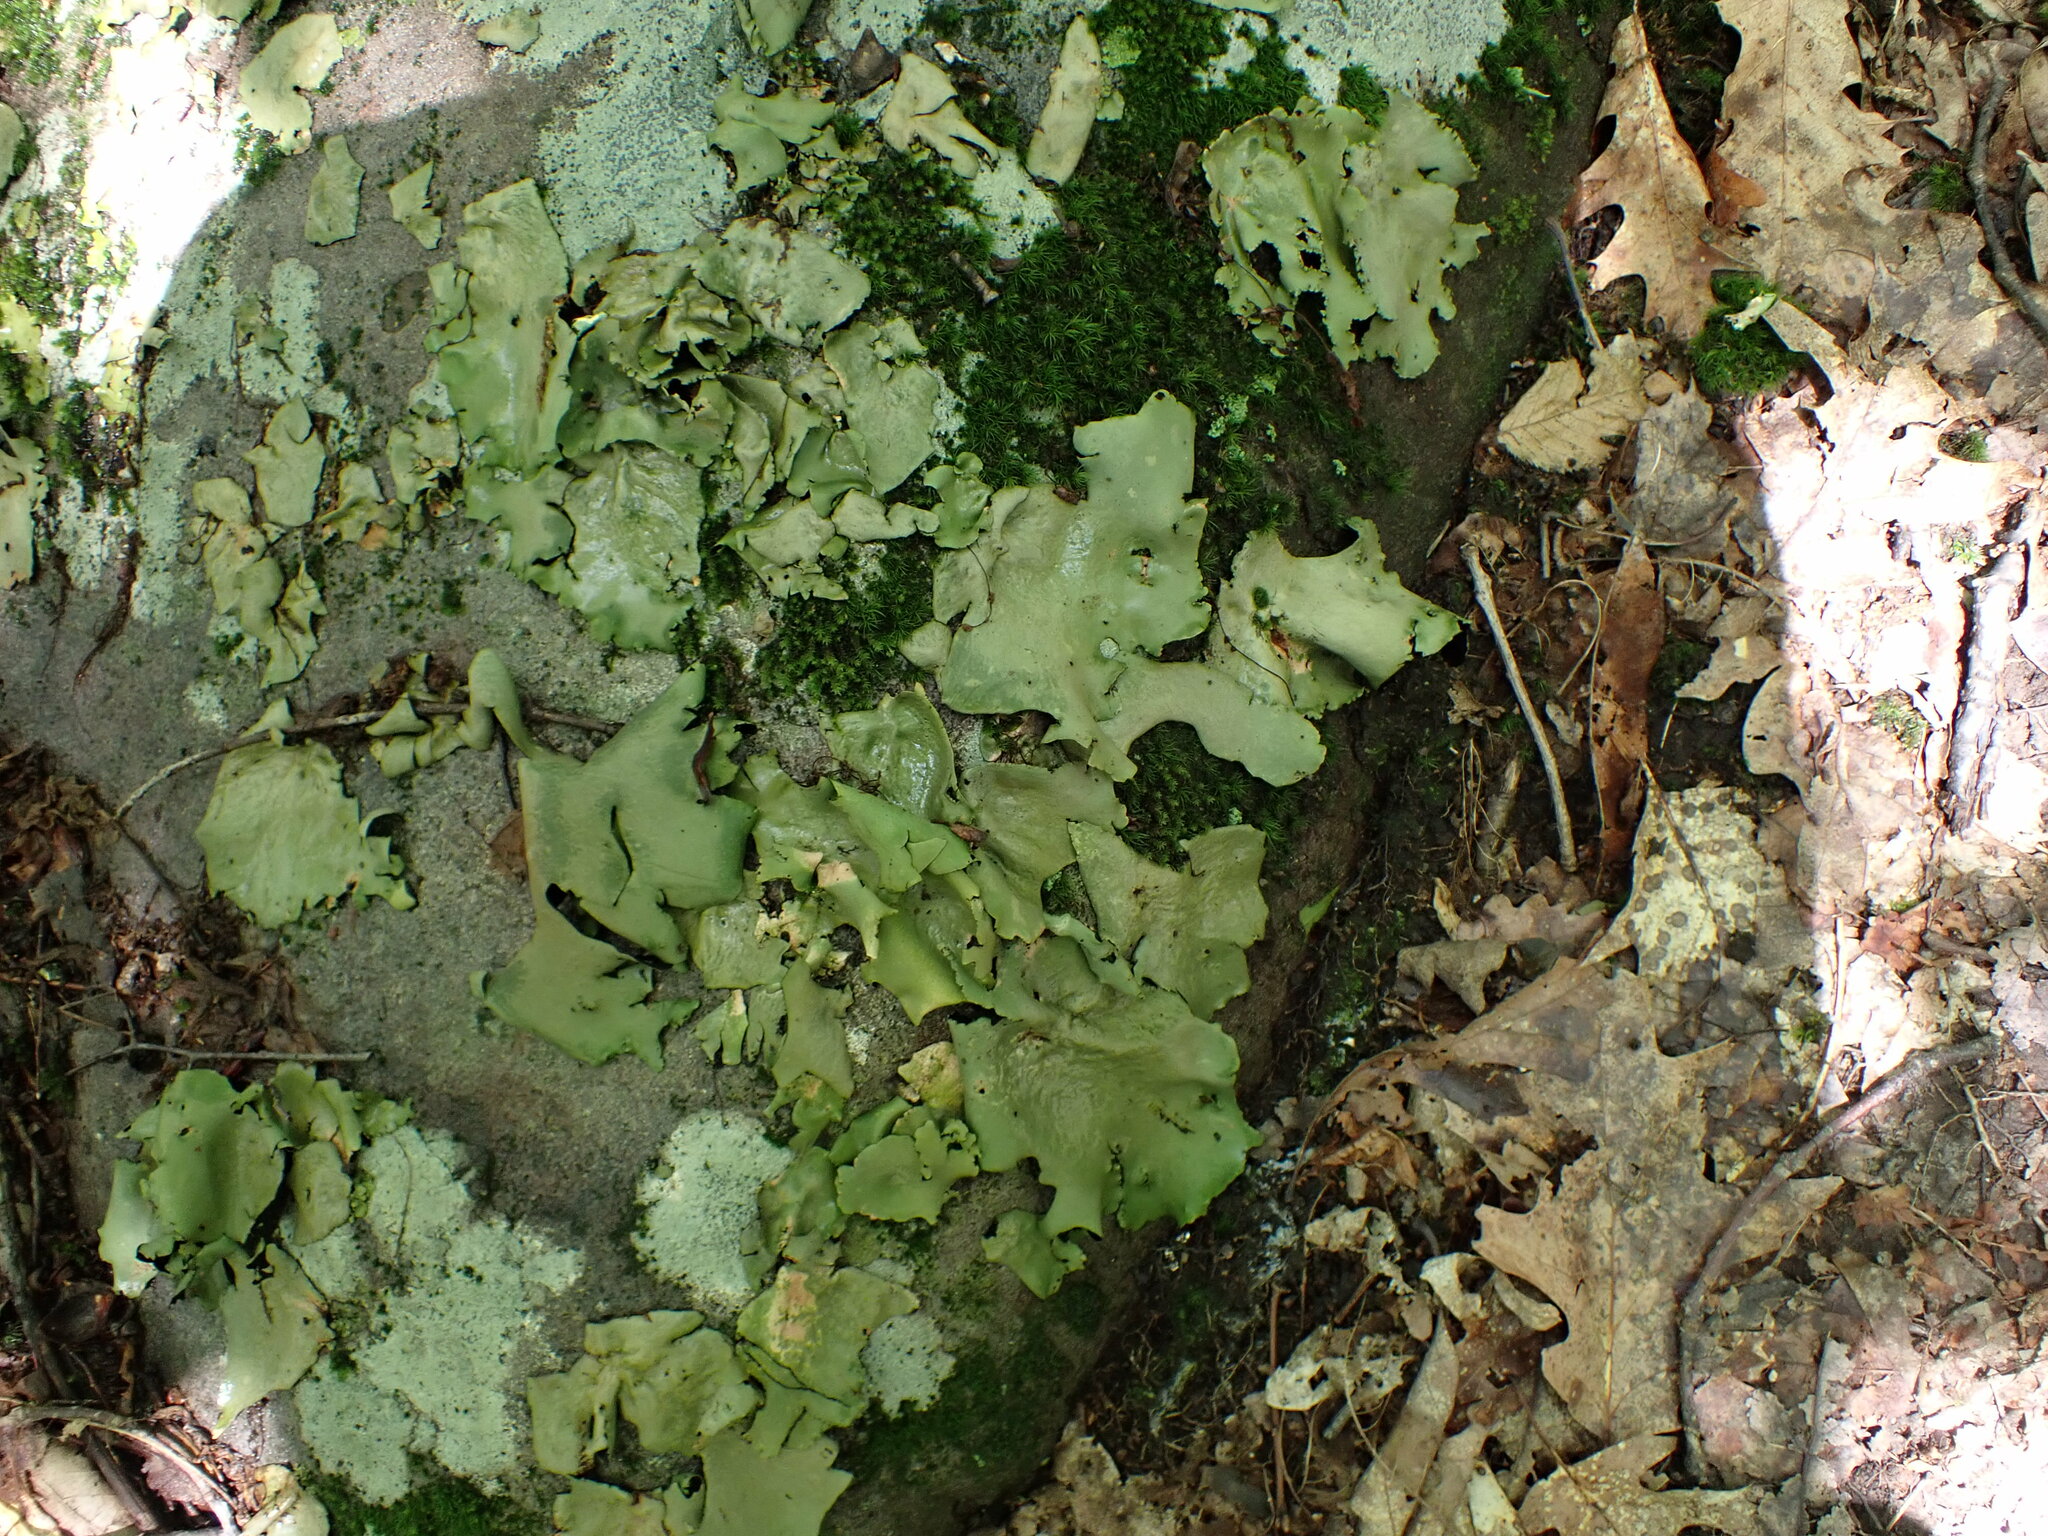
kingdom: Fungi
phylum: Ascomycota
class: Lecanoromycetes
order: Umbilicariales
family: Umbilicariaceae
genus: Umbilicaria
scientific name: Umbilicaria mammulata
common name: Smooth rock tripe
